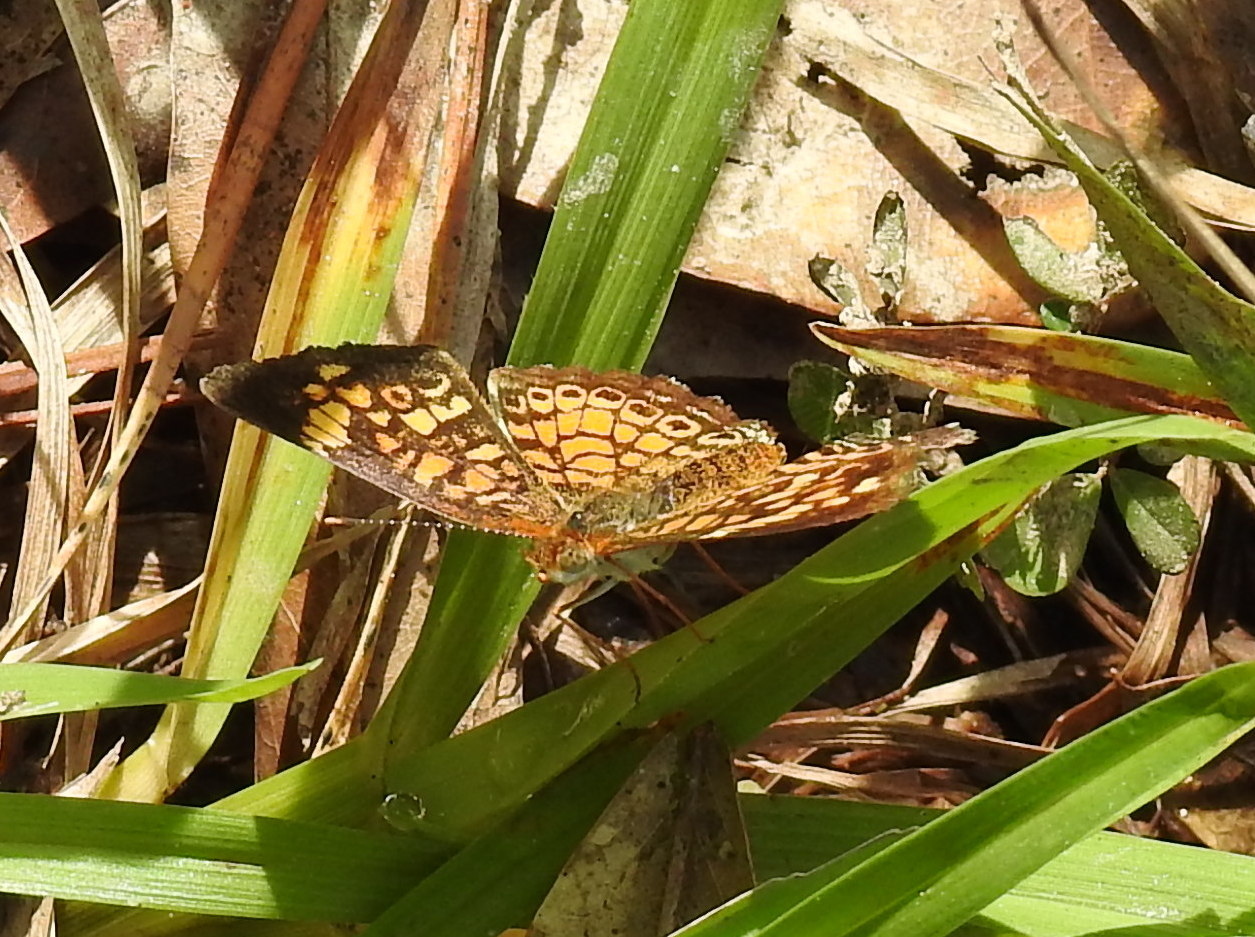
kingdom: Animalia
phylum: Arthropoda
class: Insecta
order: Lepidoptera
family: Nymphalidae
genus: Phyciodes
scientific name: Phyciodes tharos
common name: Pearl crescent
